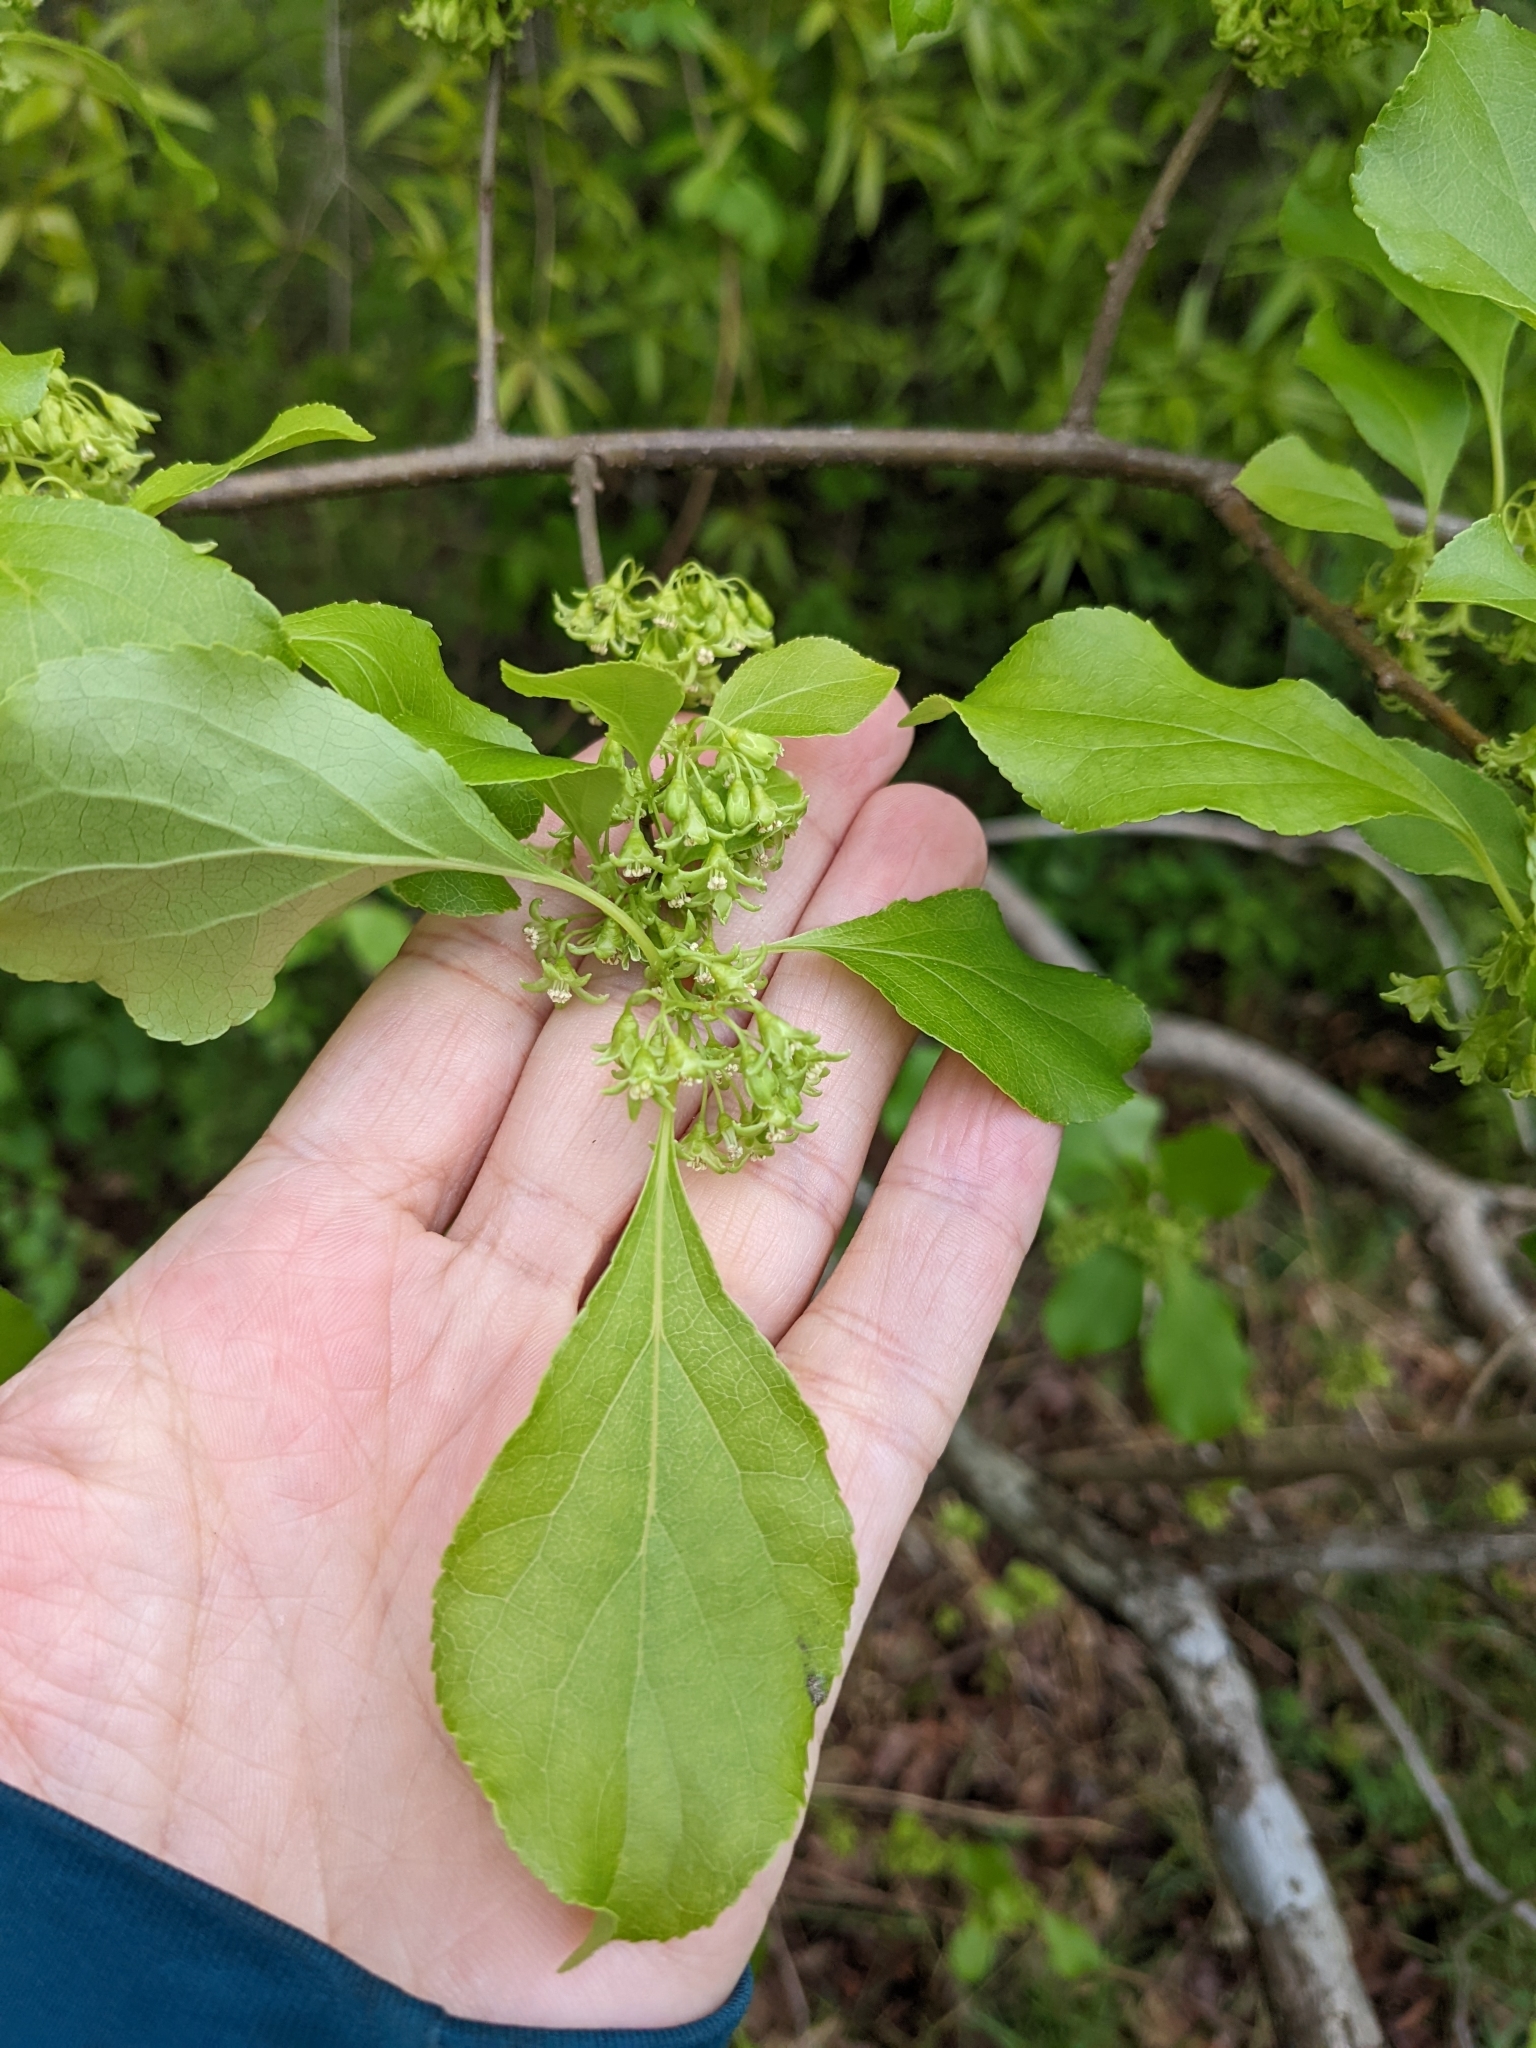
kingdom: Plantae
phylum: Tracheophyta
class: Magnoliopsida
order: Celastrales
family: Celastraceae
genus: Celastrus
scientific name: Celastrus orbiculatus
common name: Oriental bittersweet
